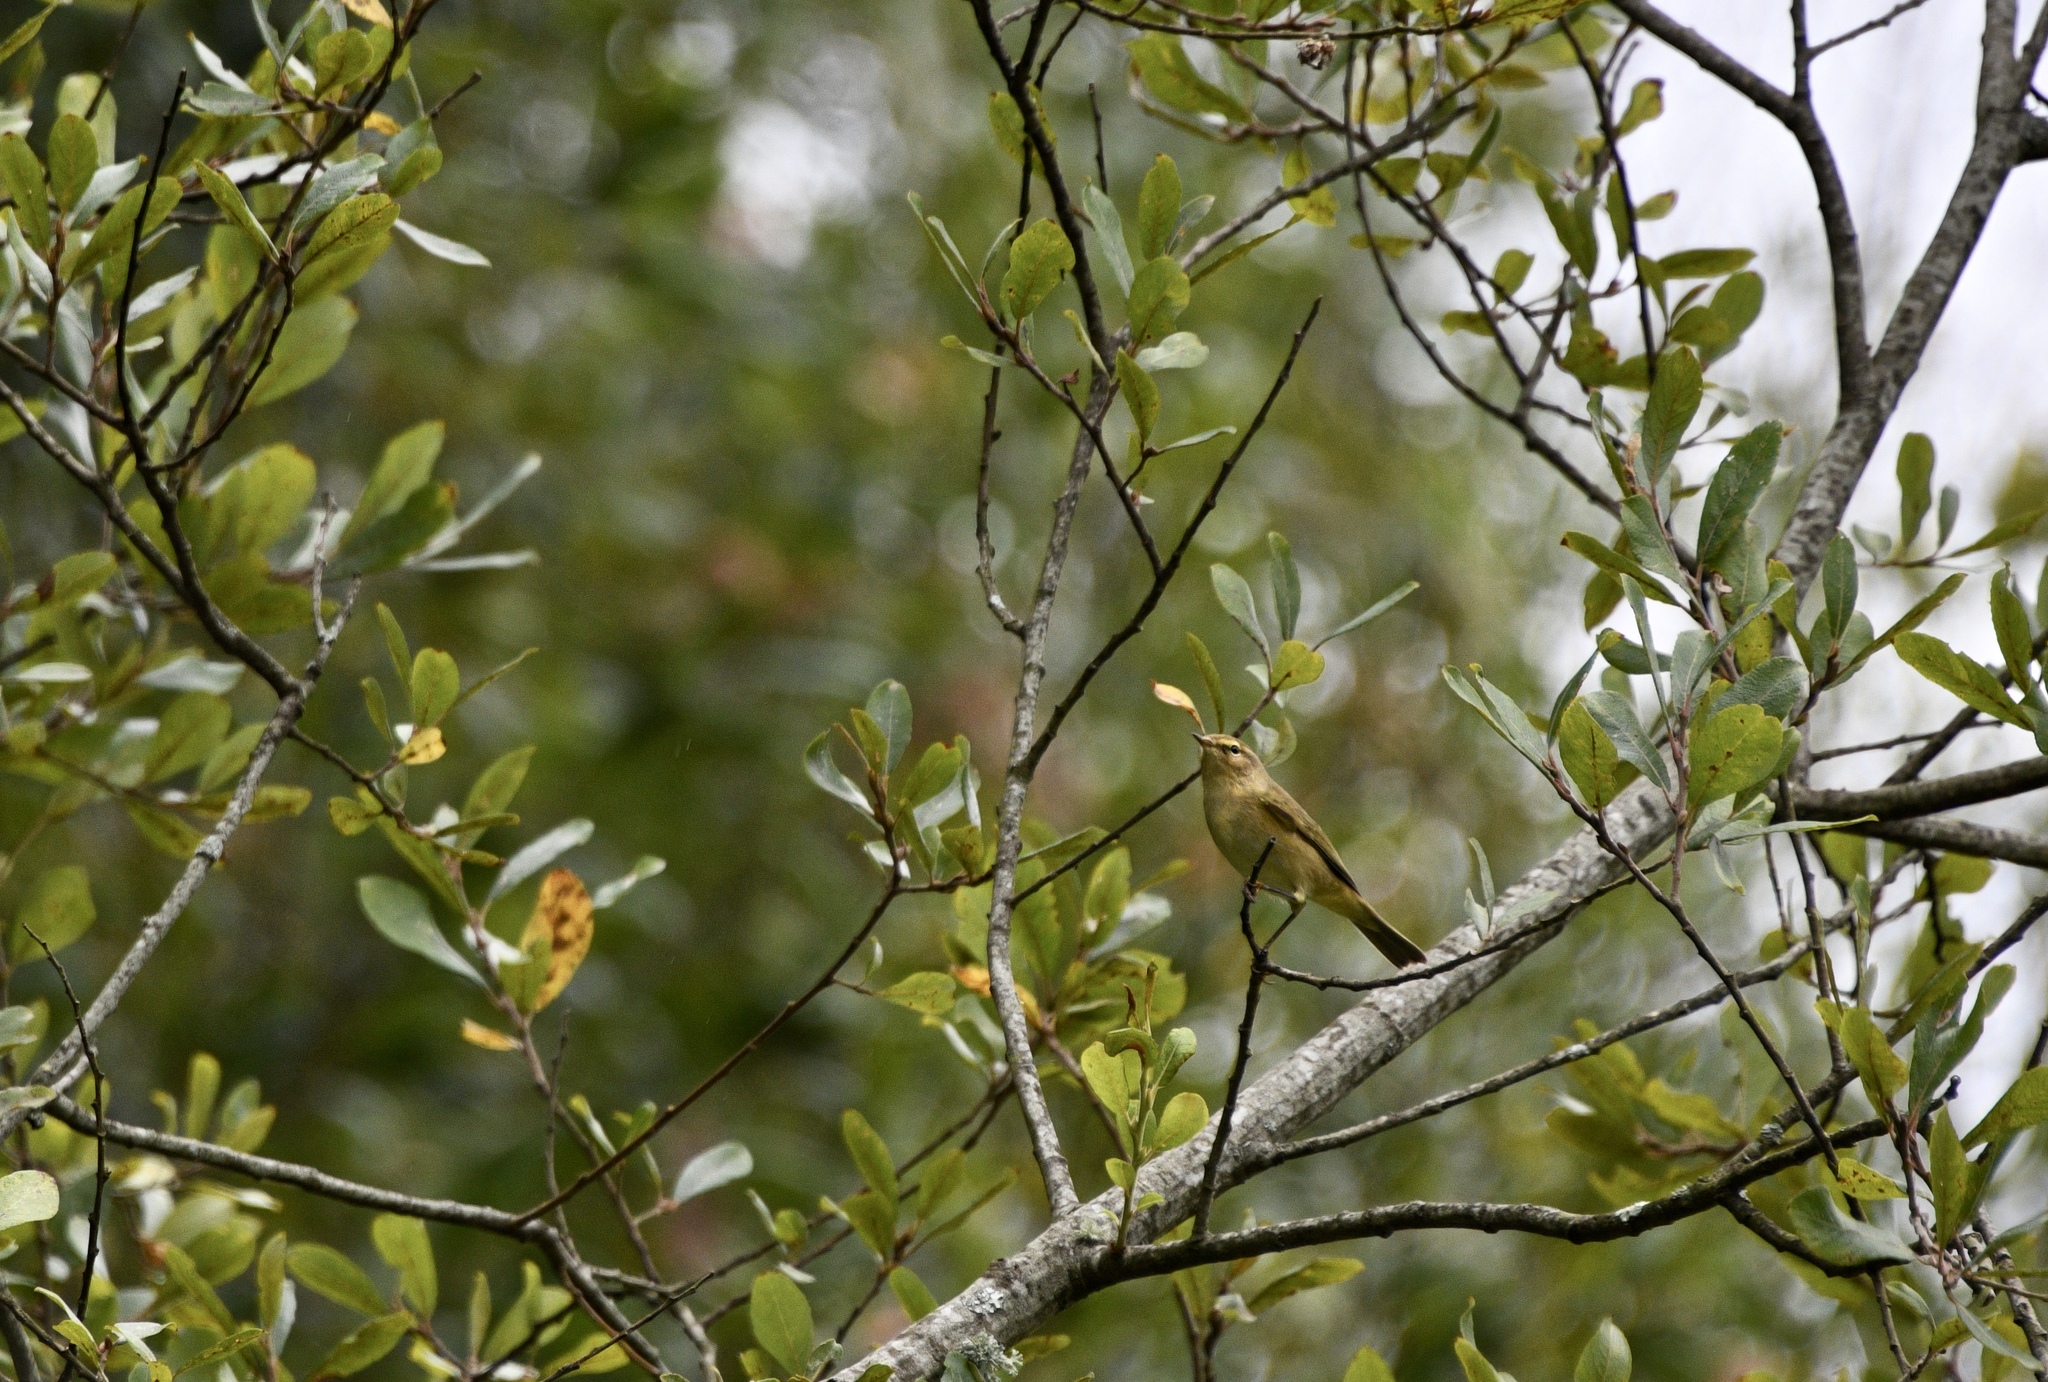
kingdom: Animalia
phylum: Chordata
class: Aves
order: Passeriformes
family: Phylloscopidae
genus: Phylloscopus
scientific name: Phylloscopus collybita
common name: Common chiffchaff
